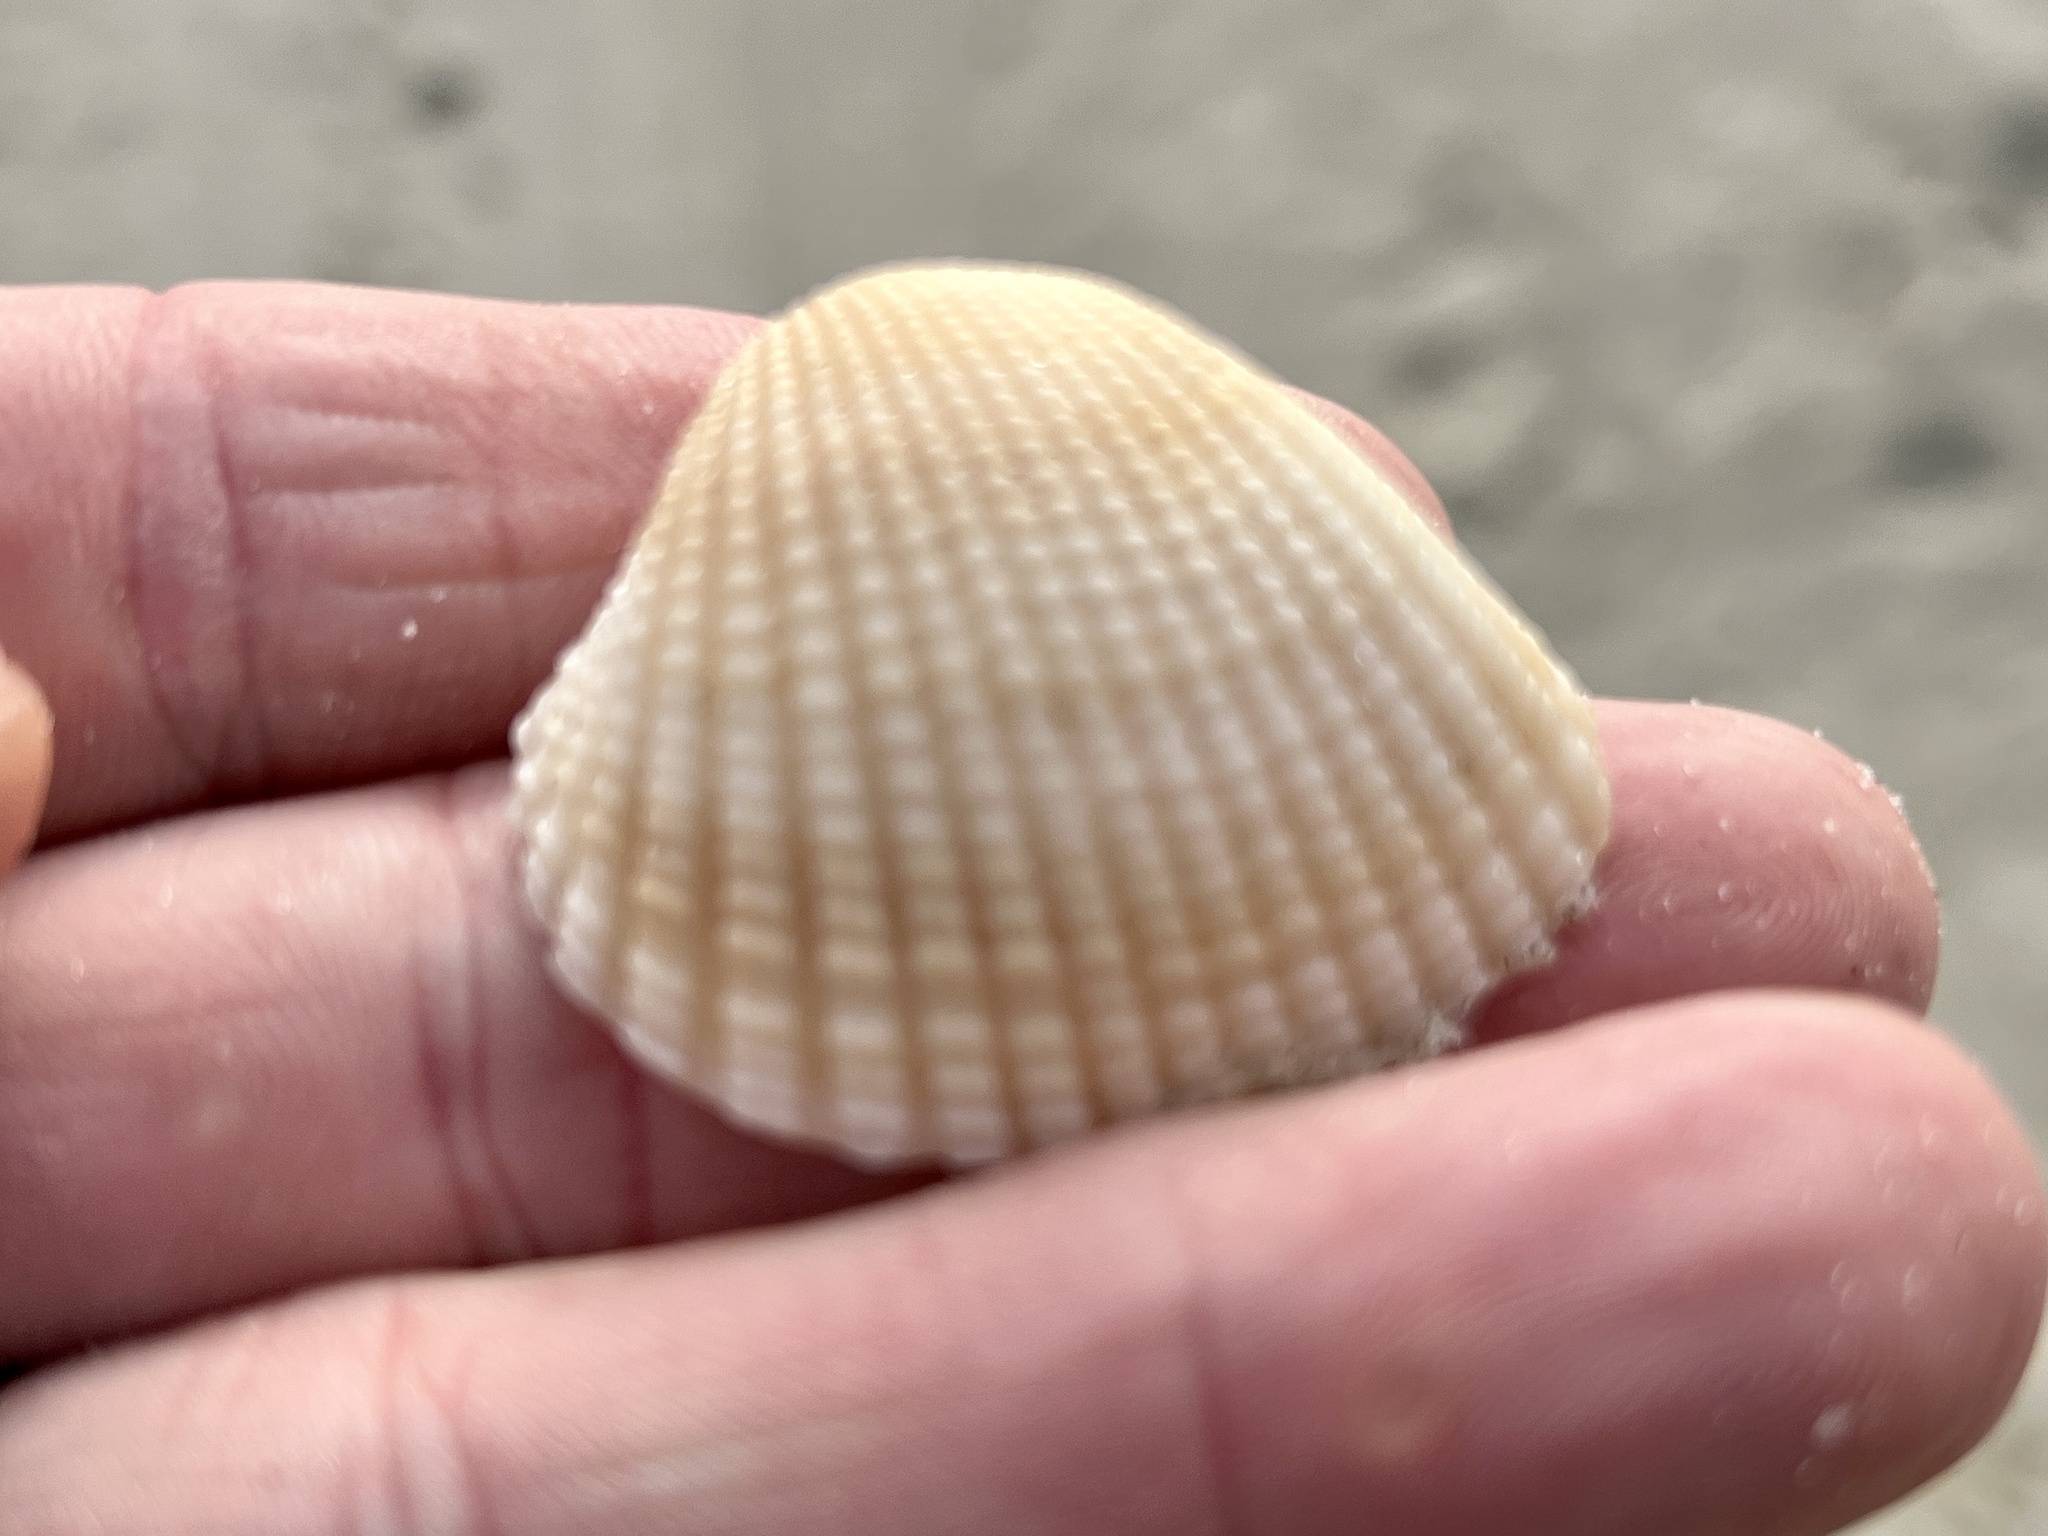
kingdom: Animalia
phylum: Mollusca
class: Bivalvia
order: Arcida
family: Arcidae
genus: Anadara
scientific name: Anadara brasiliana
